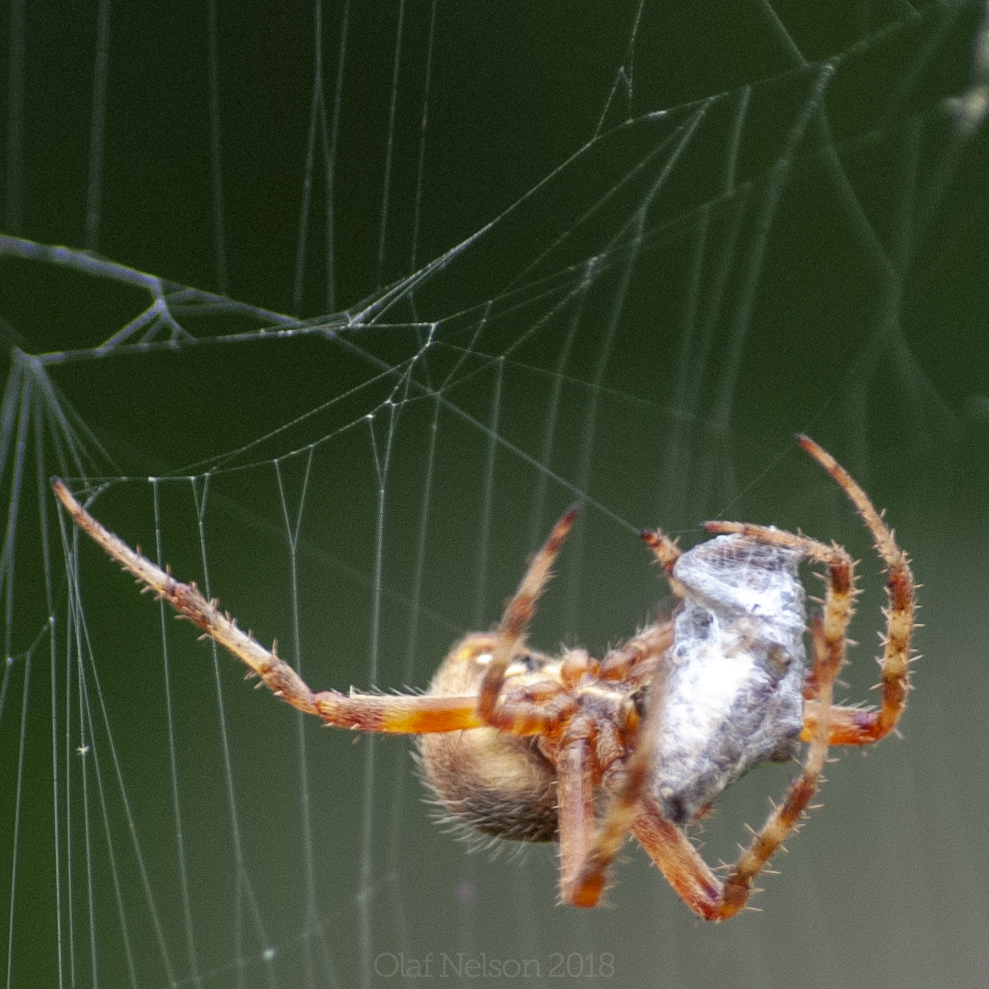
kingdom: Animalia
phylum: Arthropoda
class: Arachnida
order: Araneae
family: Araneidae
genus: Neoscona
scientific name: Neoscona crucifera
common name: Spotted orbweaver
